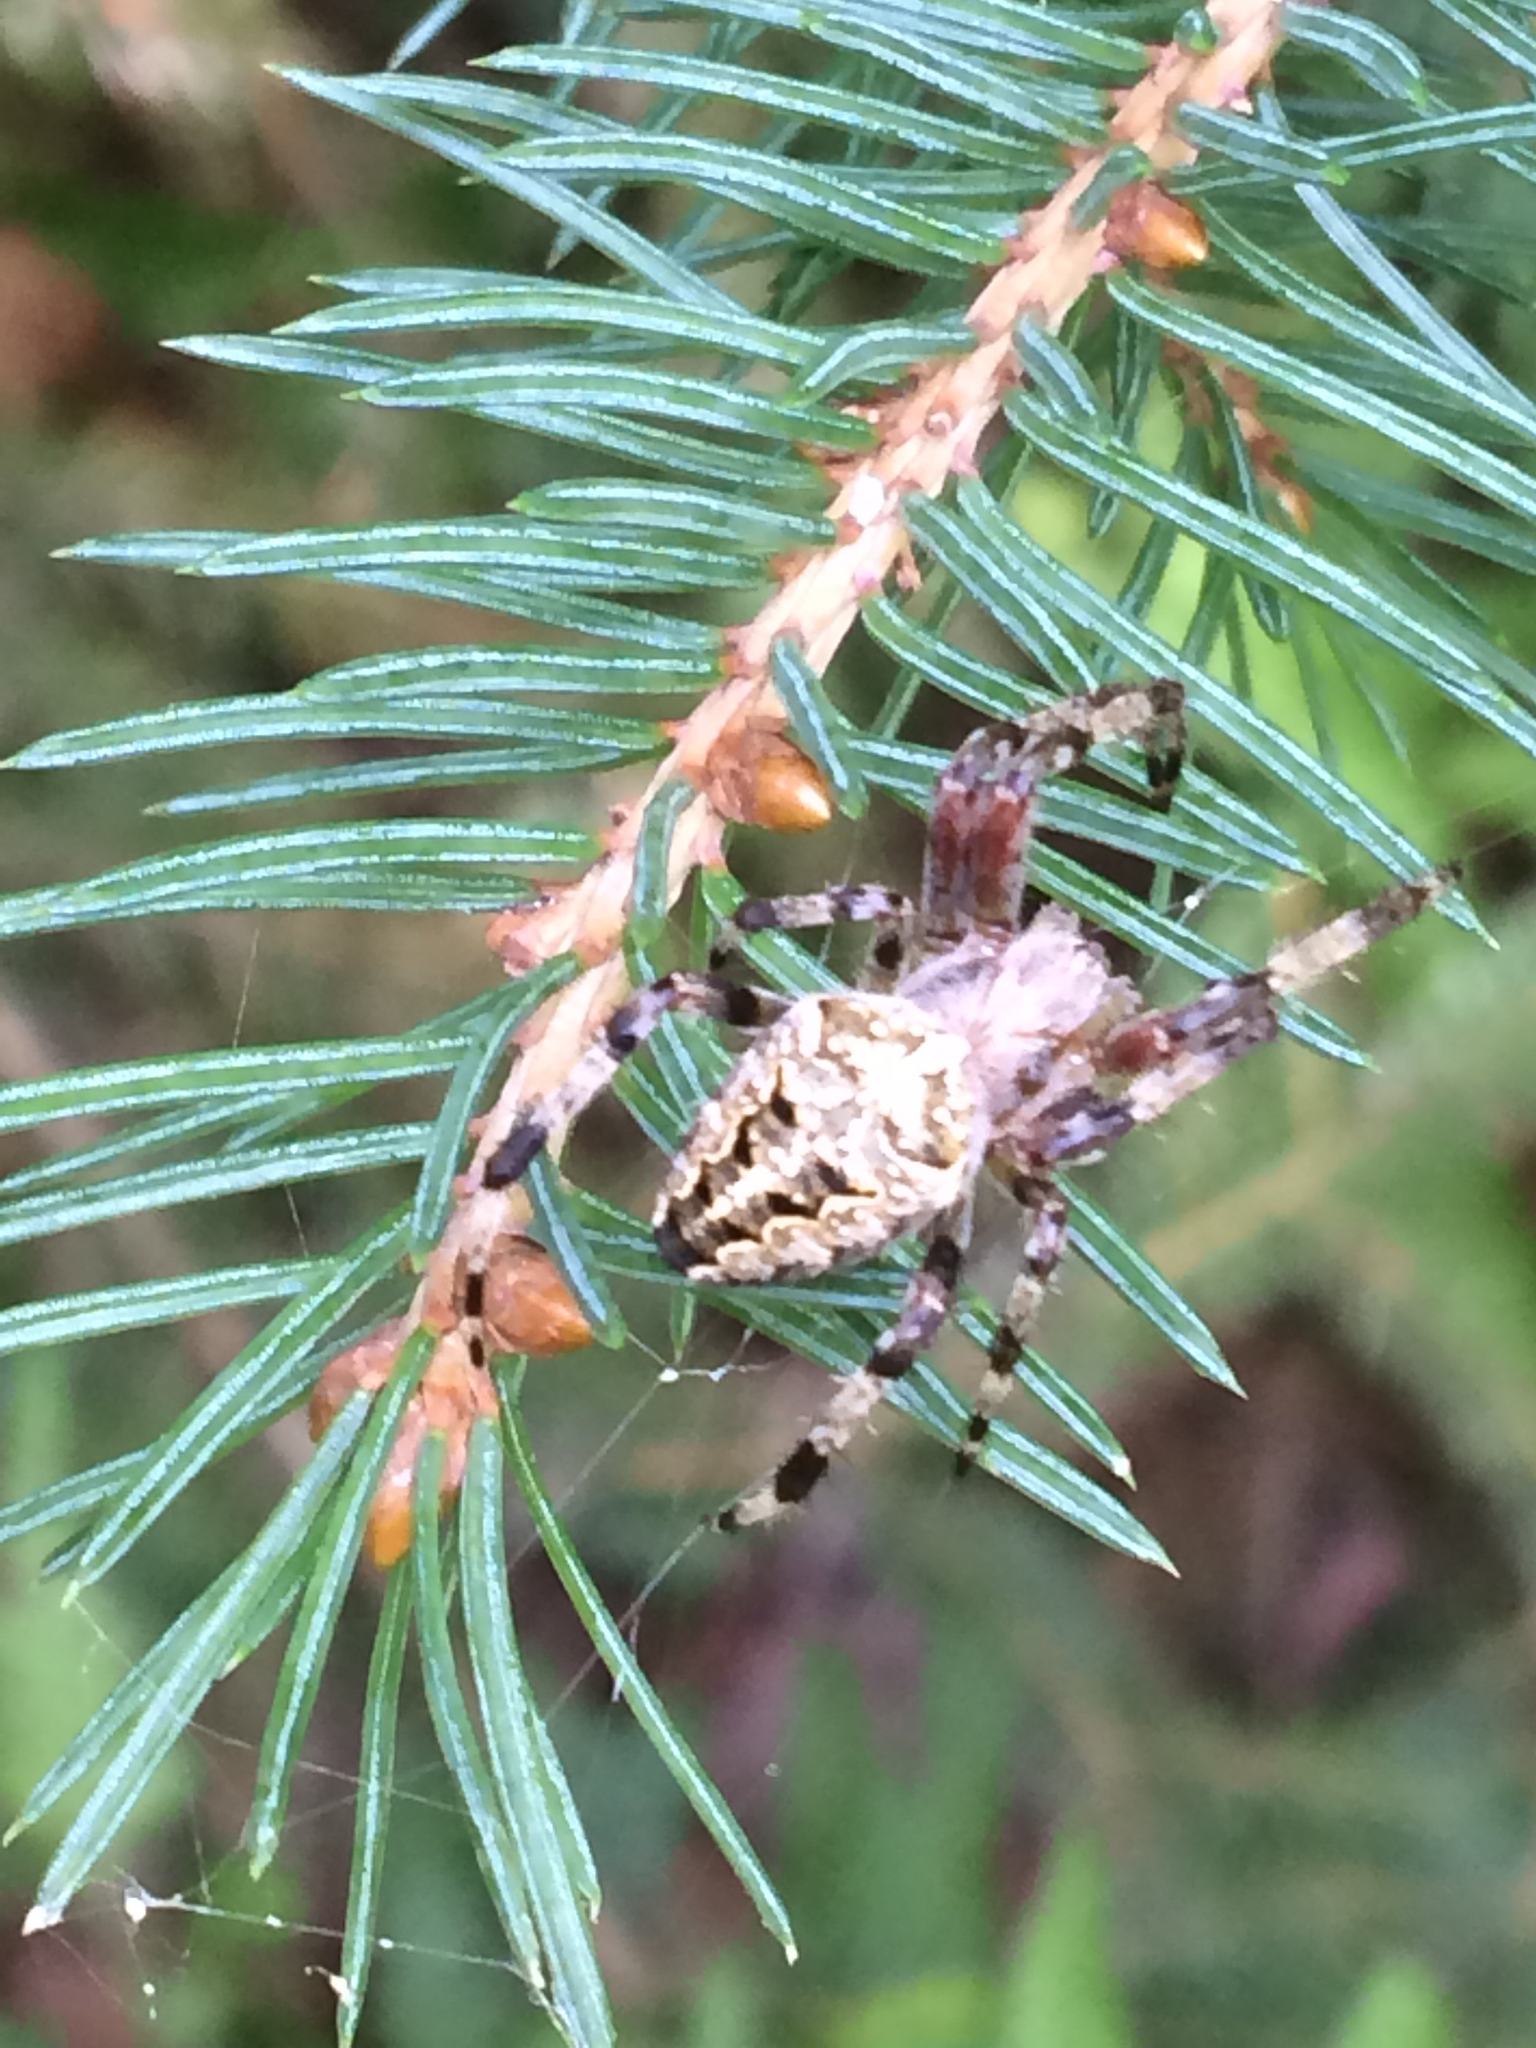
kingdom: Animalia
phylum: Arthropoda
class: Arachnida
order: Araneae
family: Araneidae
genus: Araneus
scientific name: Araneus nordmanni
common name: Nordmann's orbweaver
